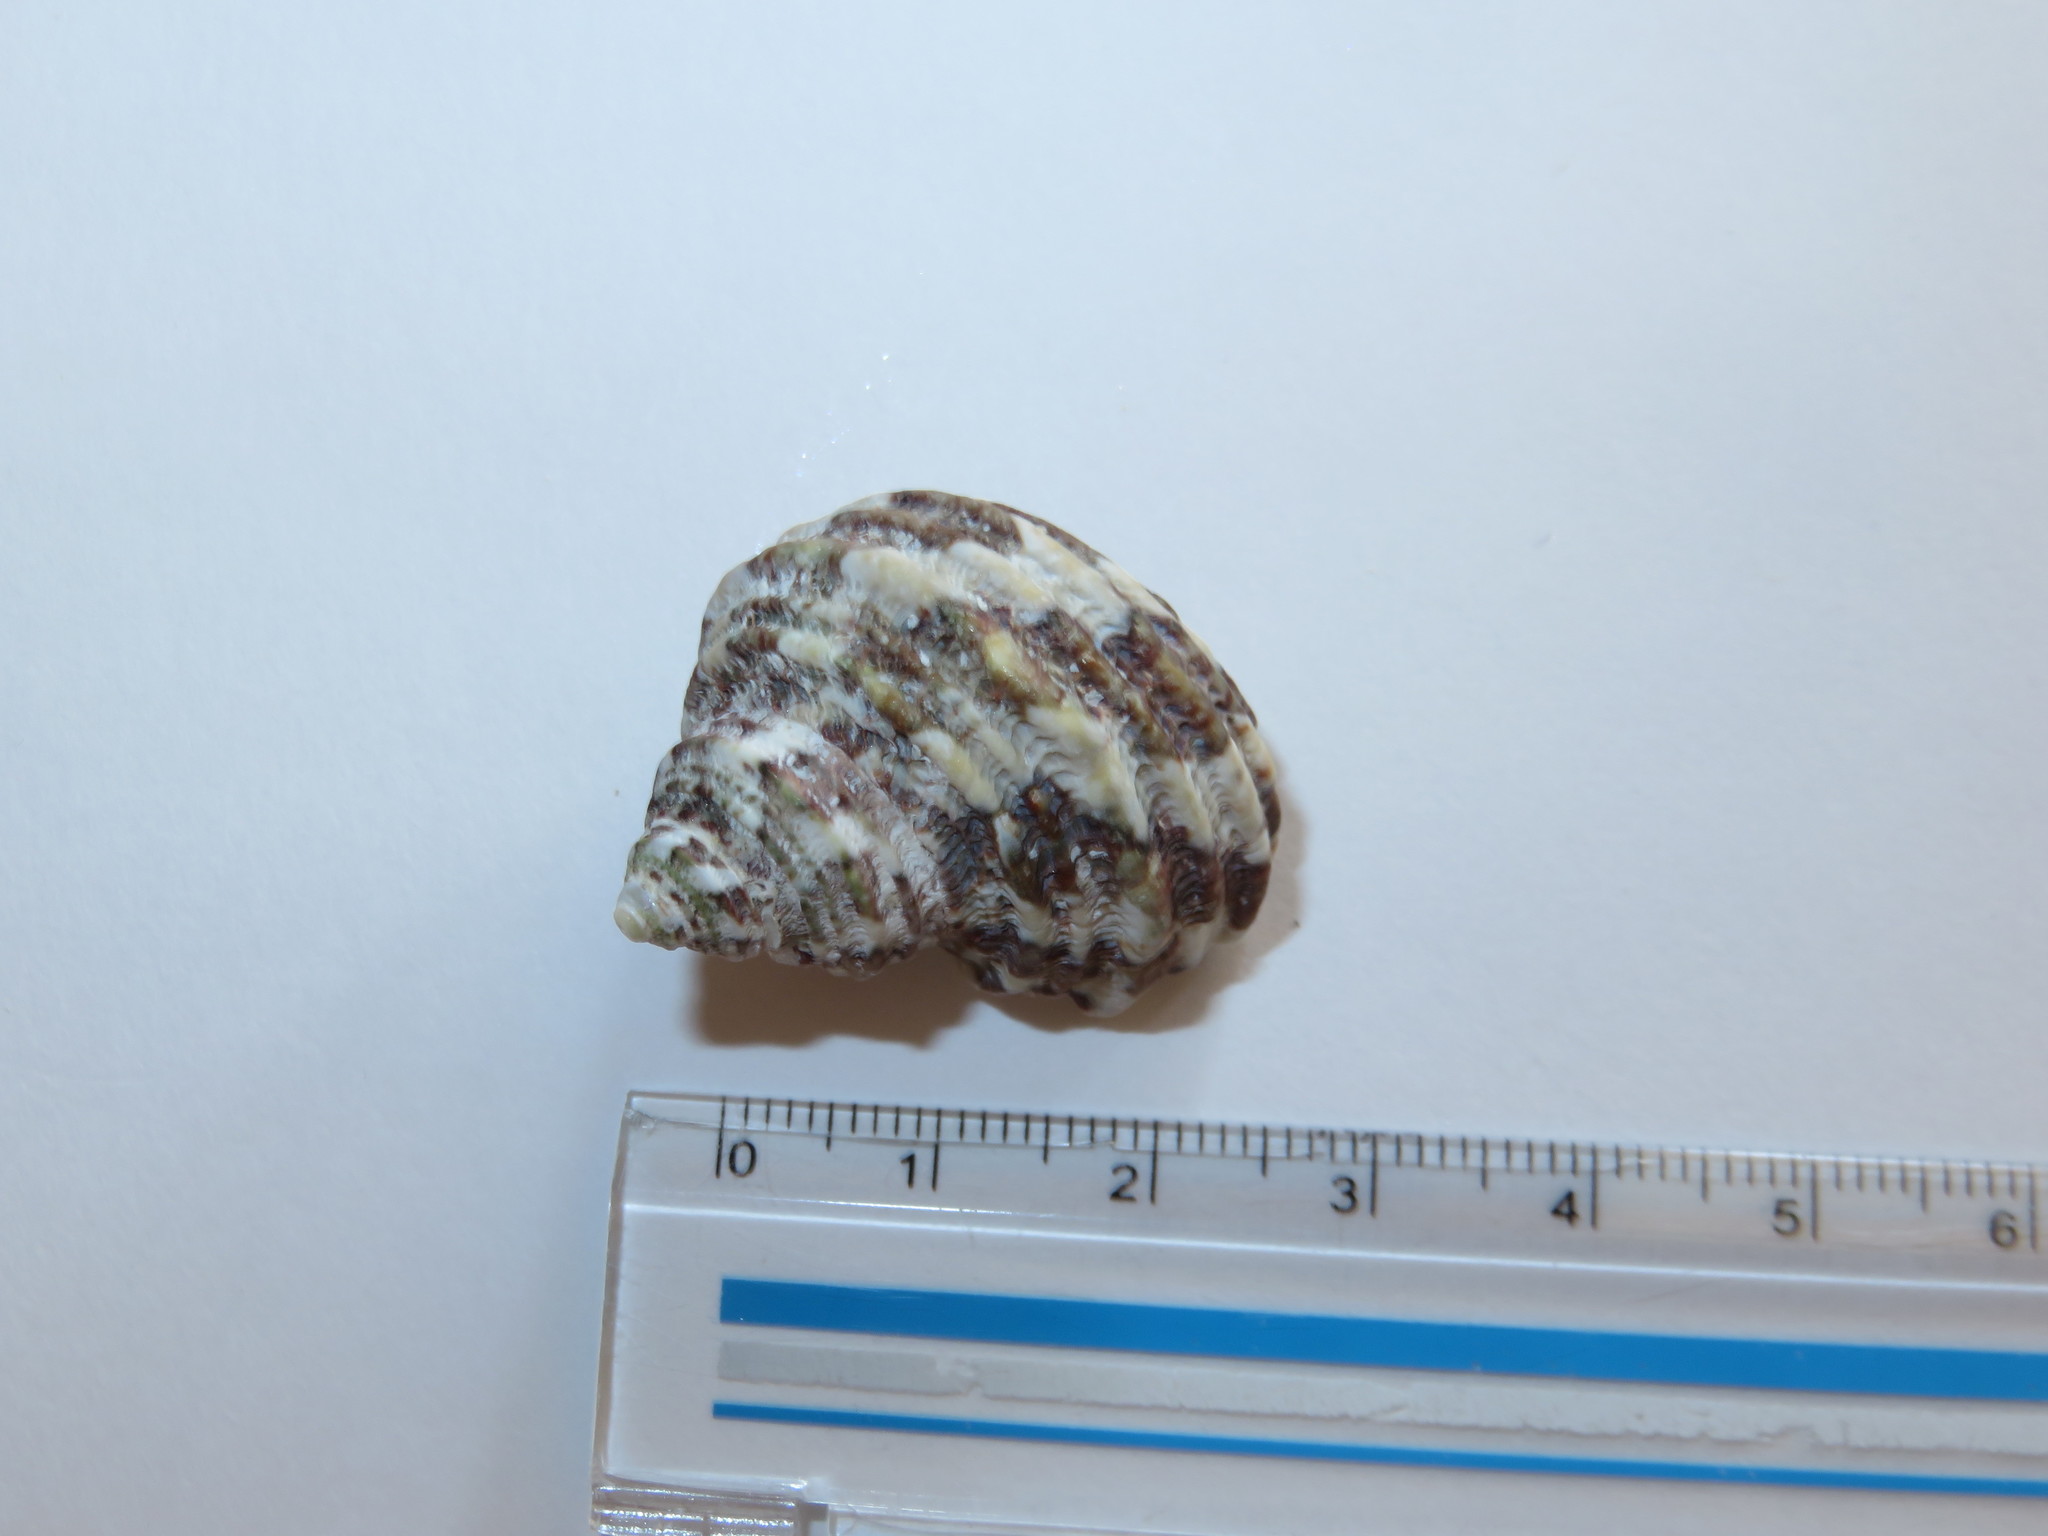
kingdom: Animalia
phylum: Mollusca
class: Gastropoda
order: Trochida
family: Turbinidae
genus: Turbo
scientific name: Turbo sazae
